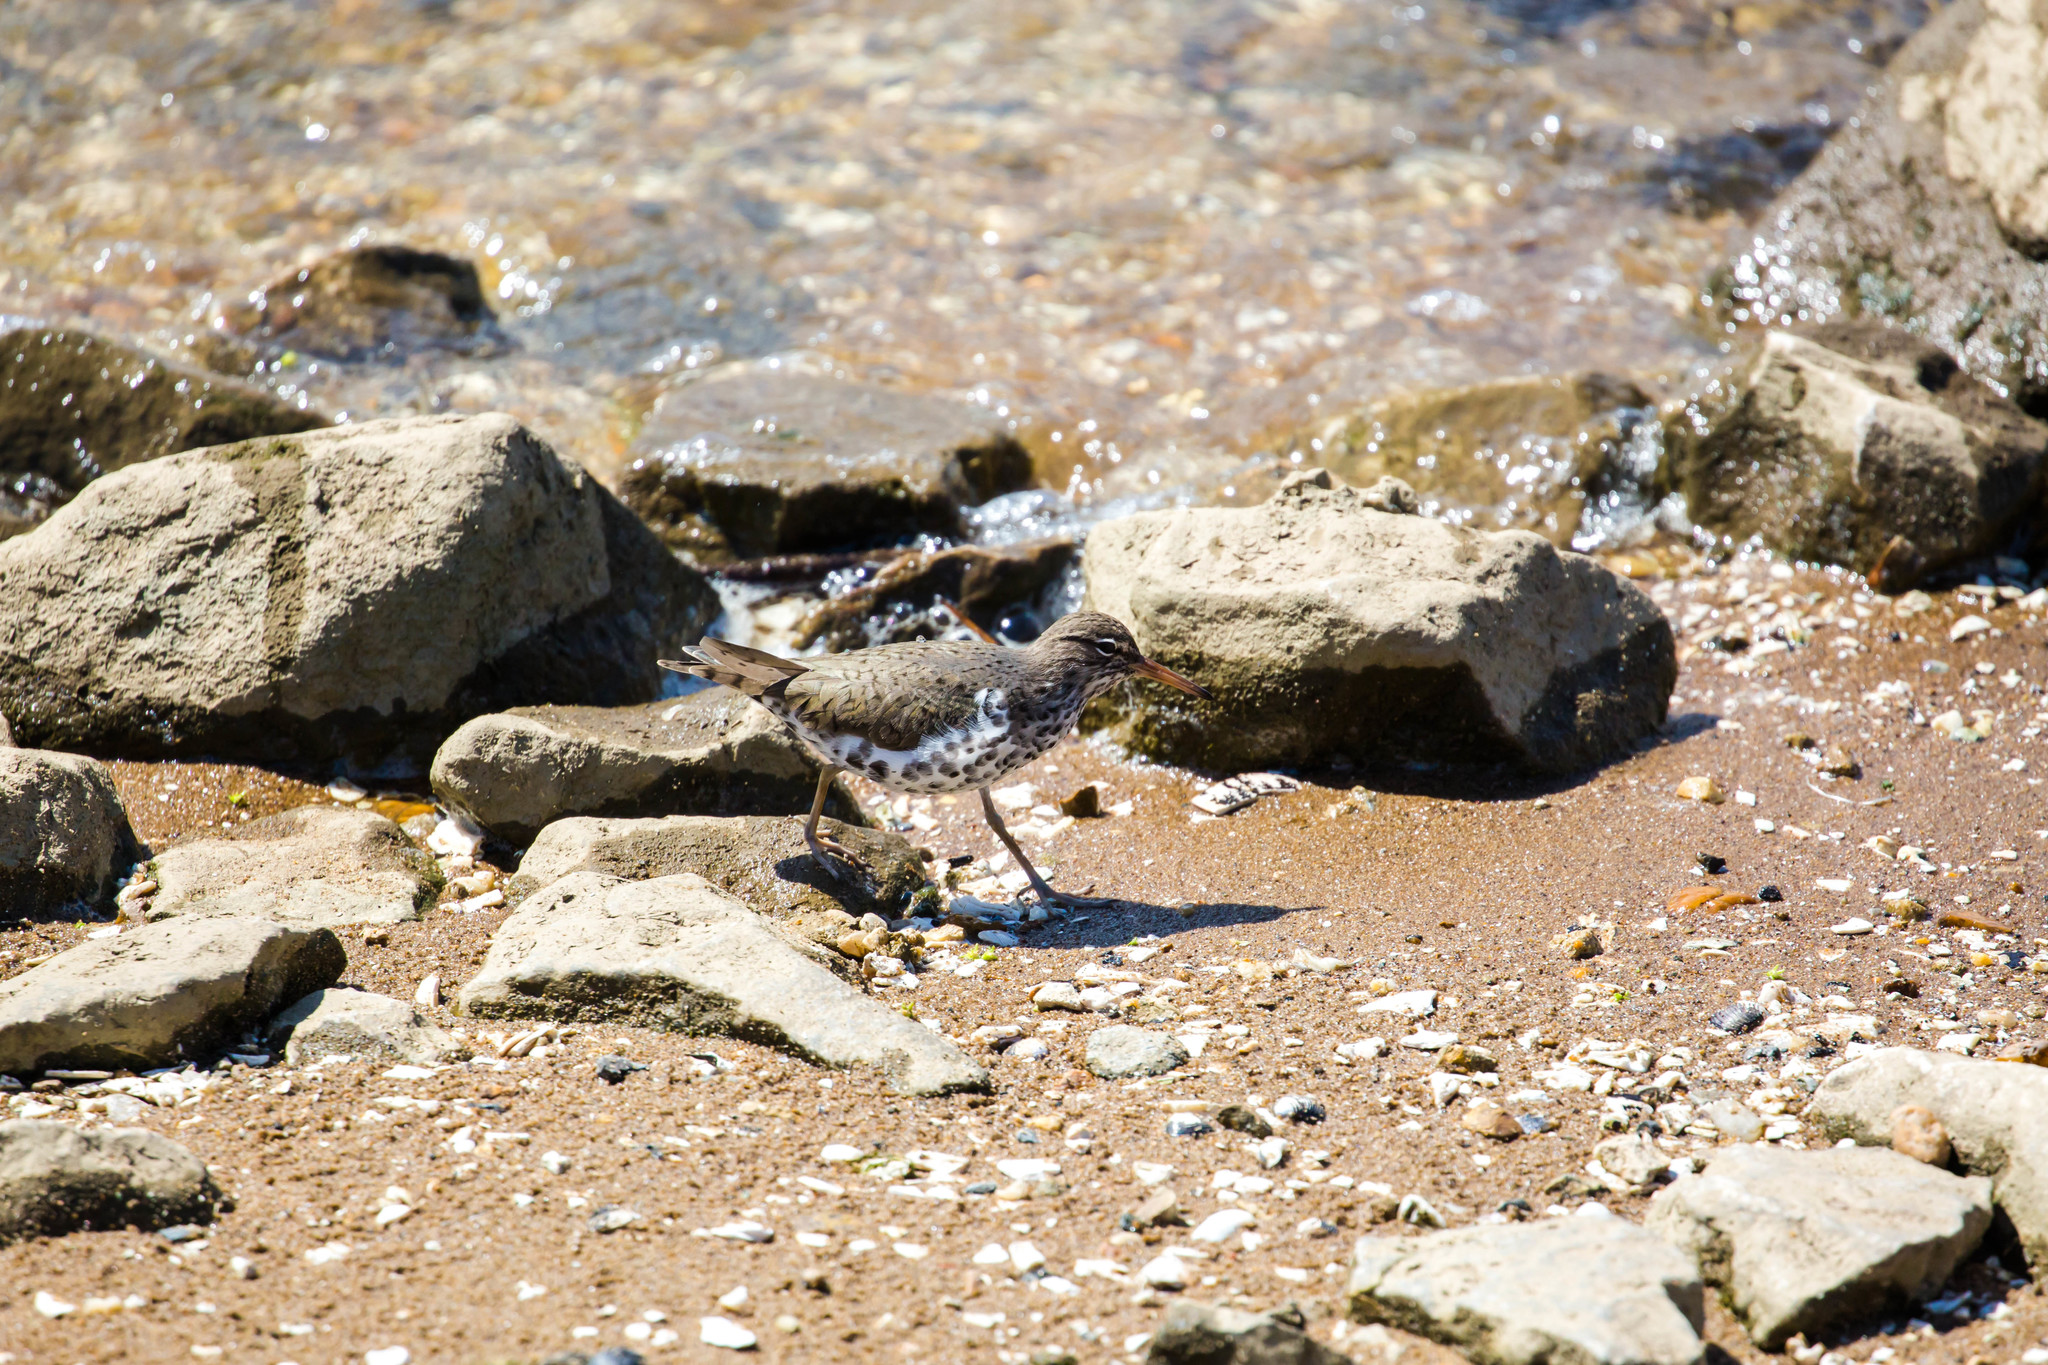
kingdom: Animalia
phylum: Chordata
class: Aves
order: Charadriiformes
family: Scolopacidae
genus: Actitis
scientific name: Actitis macularius
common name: Spotted sandpiper
